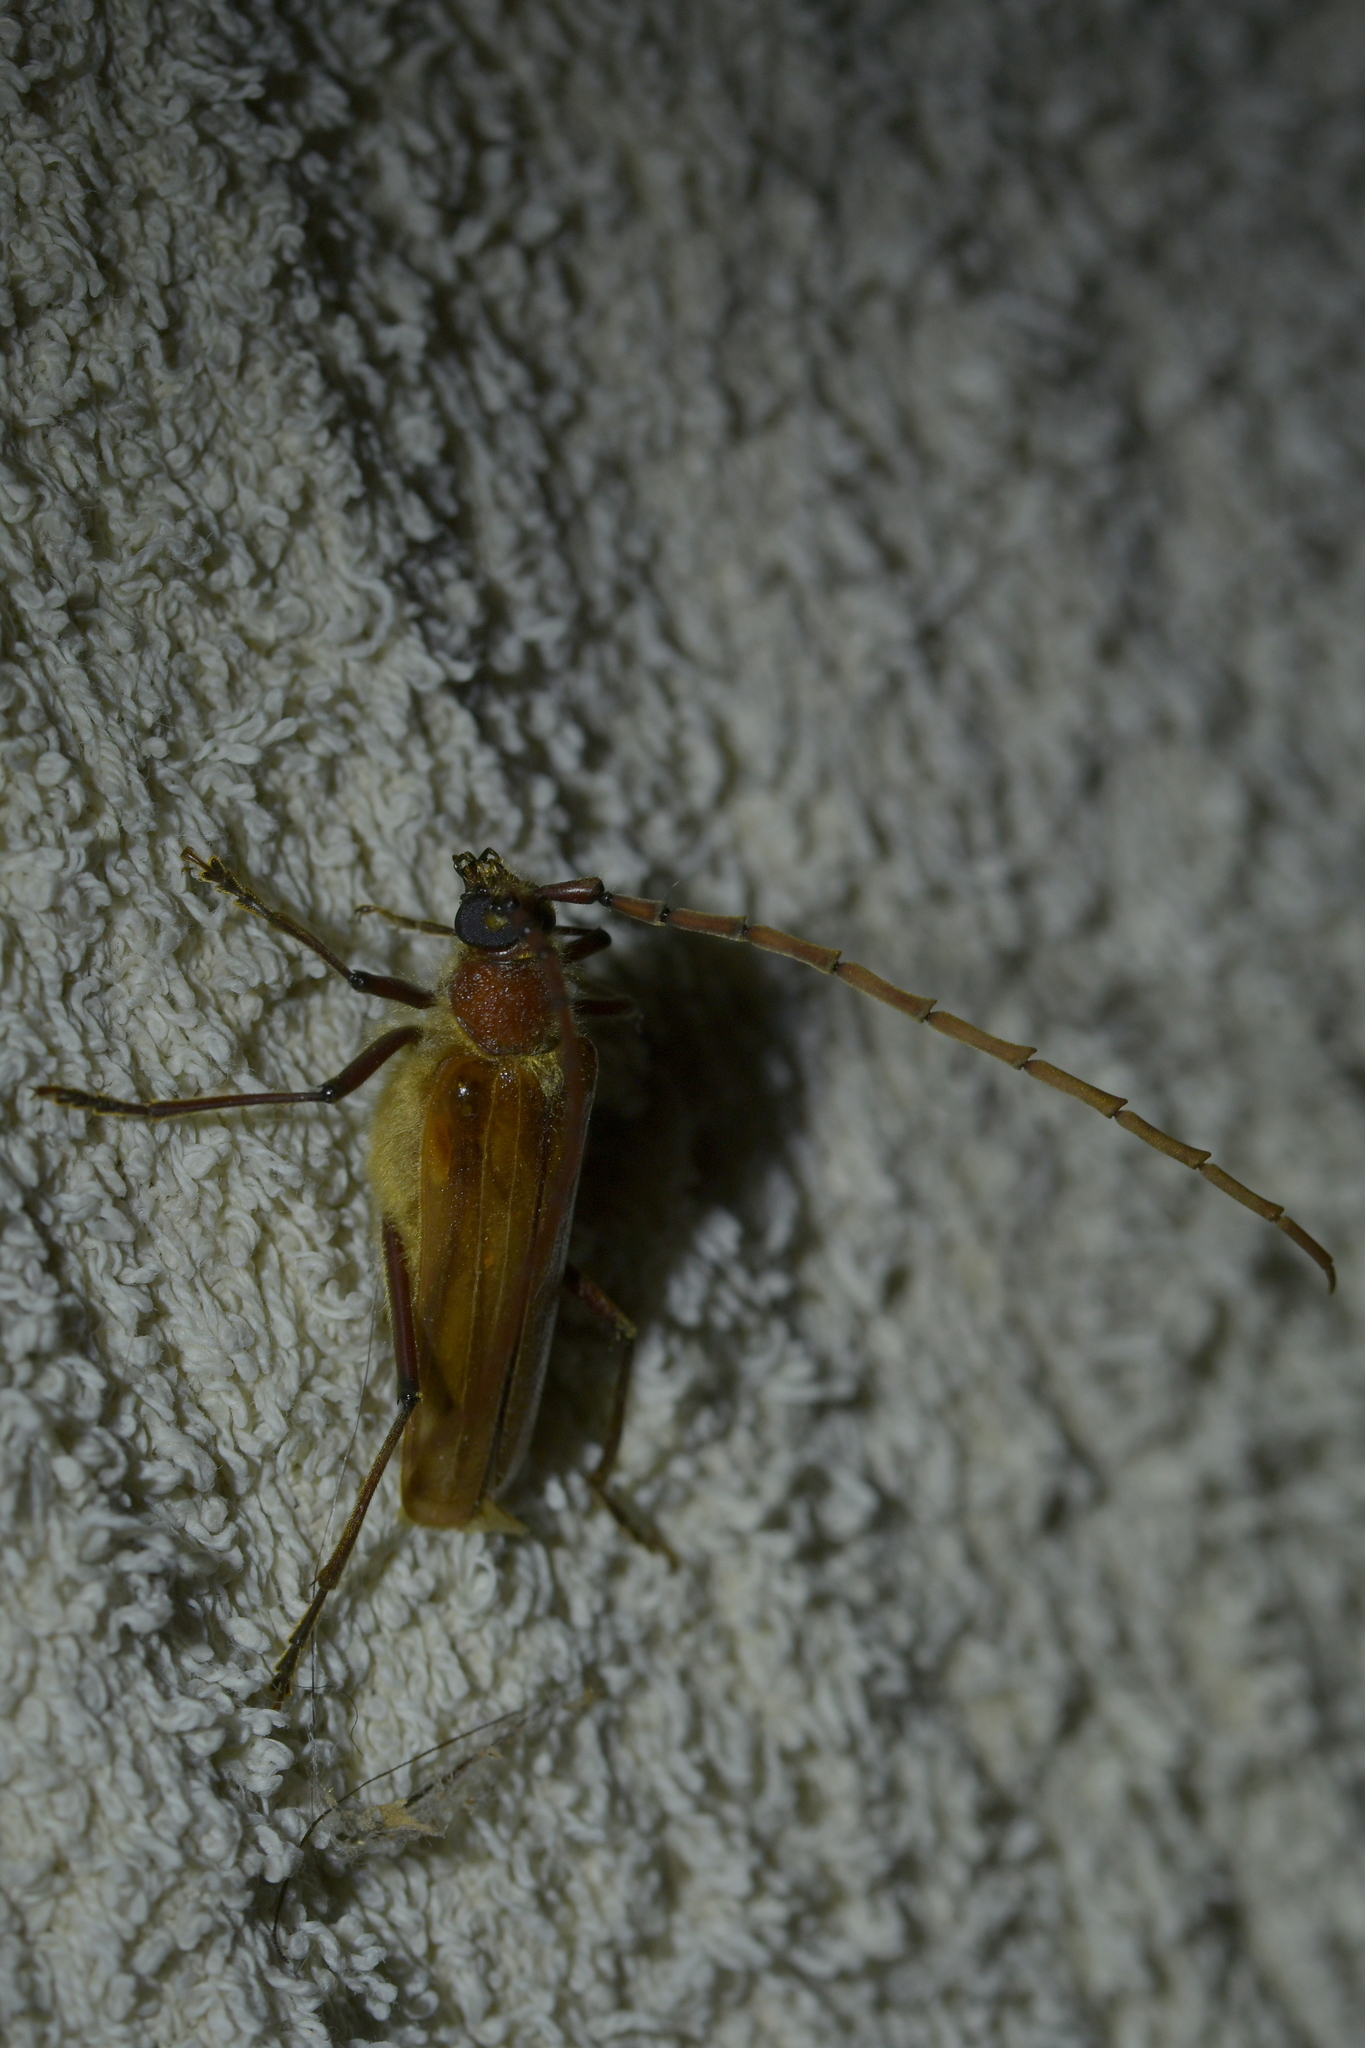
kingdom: Animalia
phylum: Arthropoda
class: Insecta
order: Coleoptera
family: Cerambycidae
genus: Ochrocydus
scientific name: Ochrocydus huttoni
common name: Kanuka longhorn
